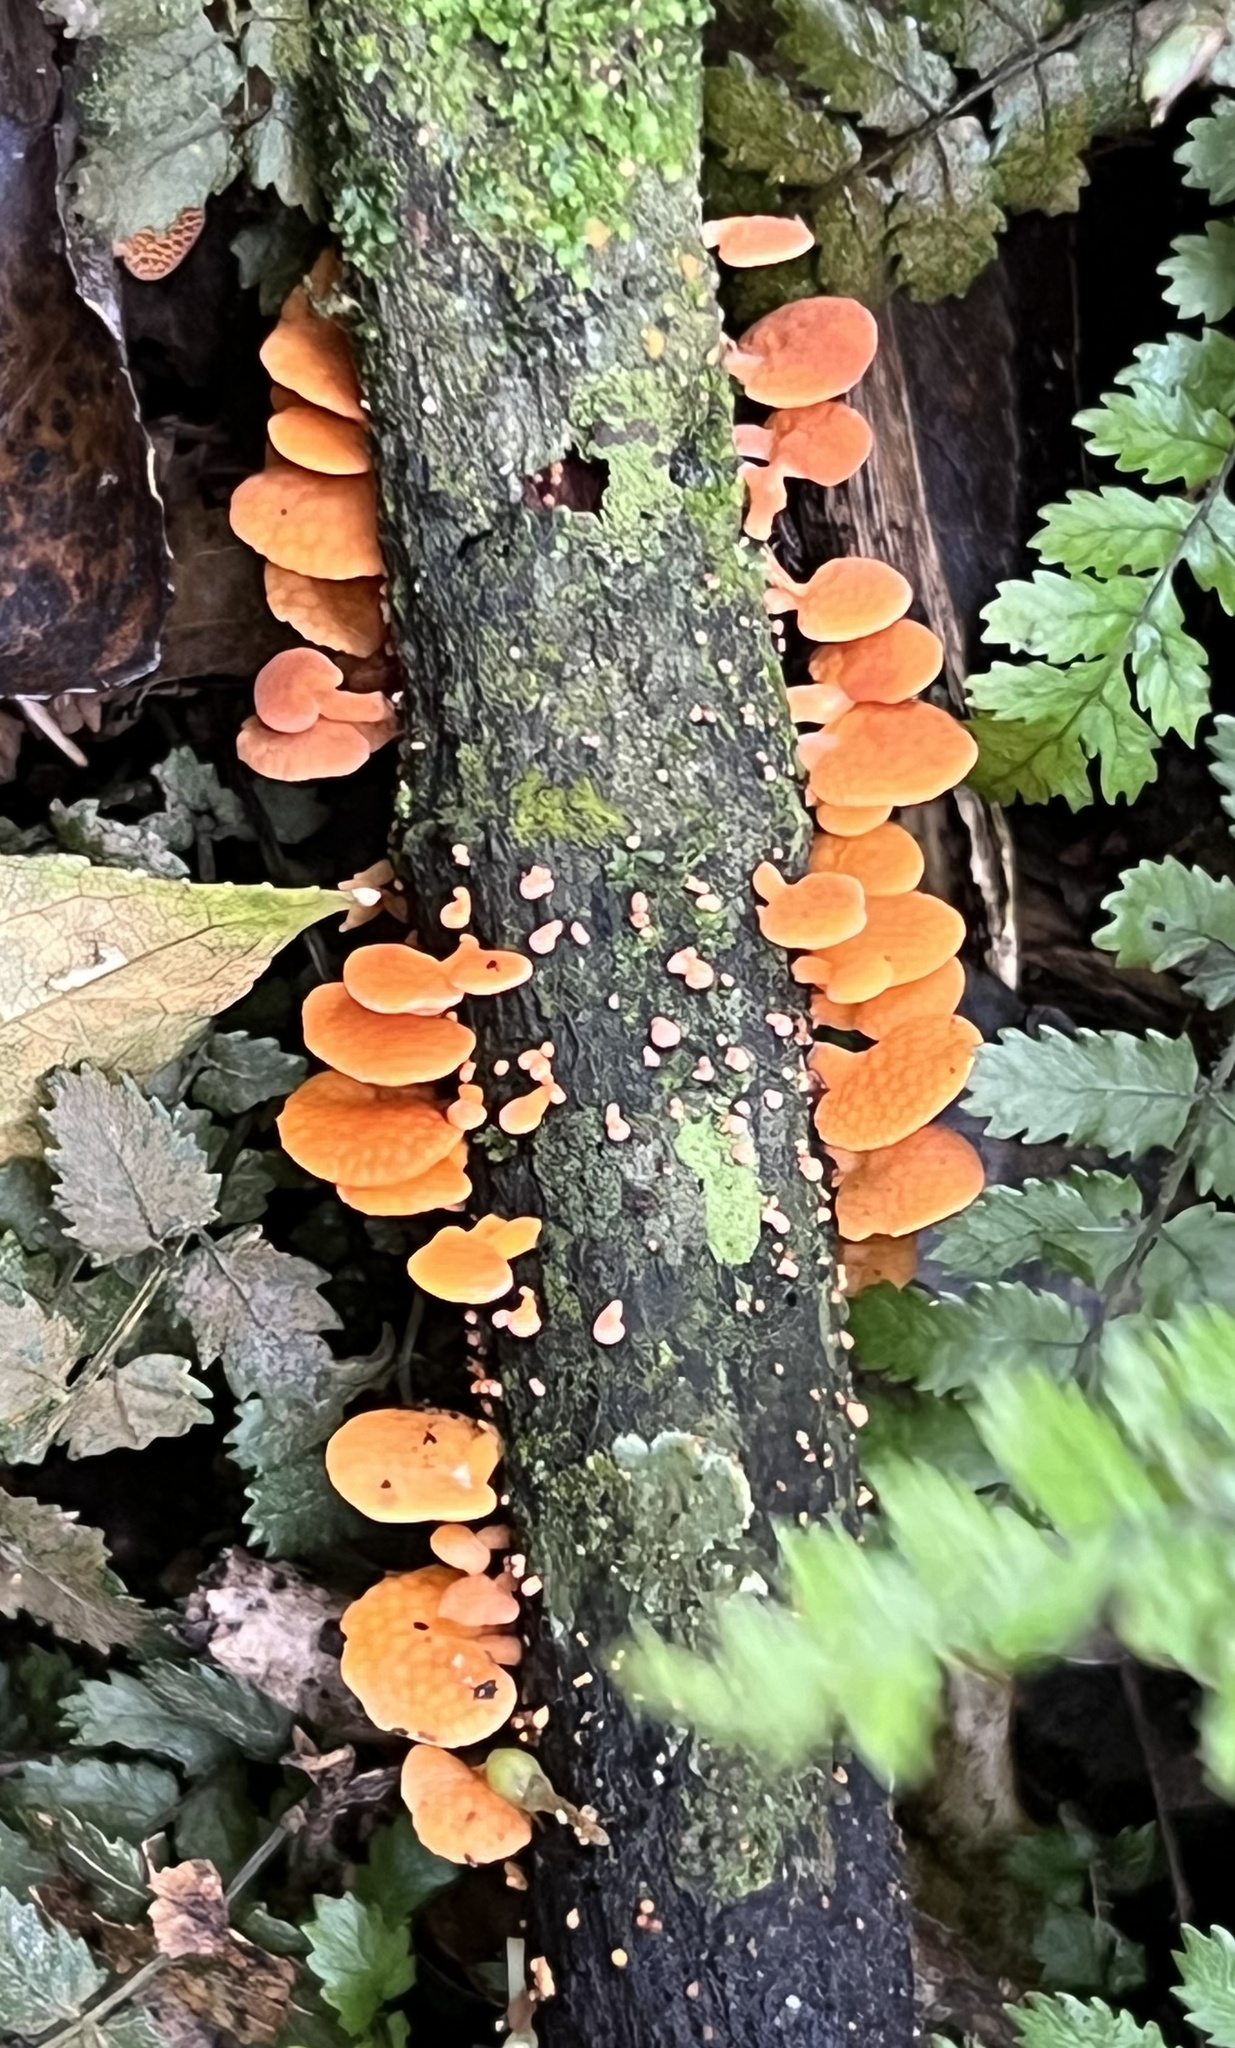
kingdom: Fungi
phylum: Basidiomycota
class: Agaricomycetes
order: Agaricales
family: Mycenaceae
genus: Favolaschia
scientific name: Favolaschia claudopus
